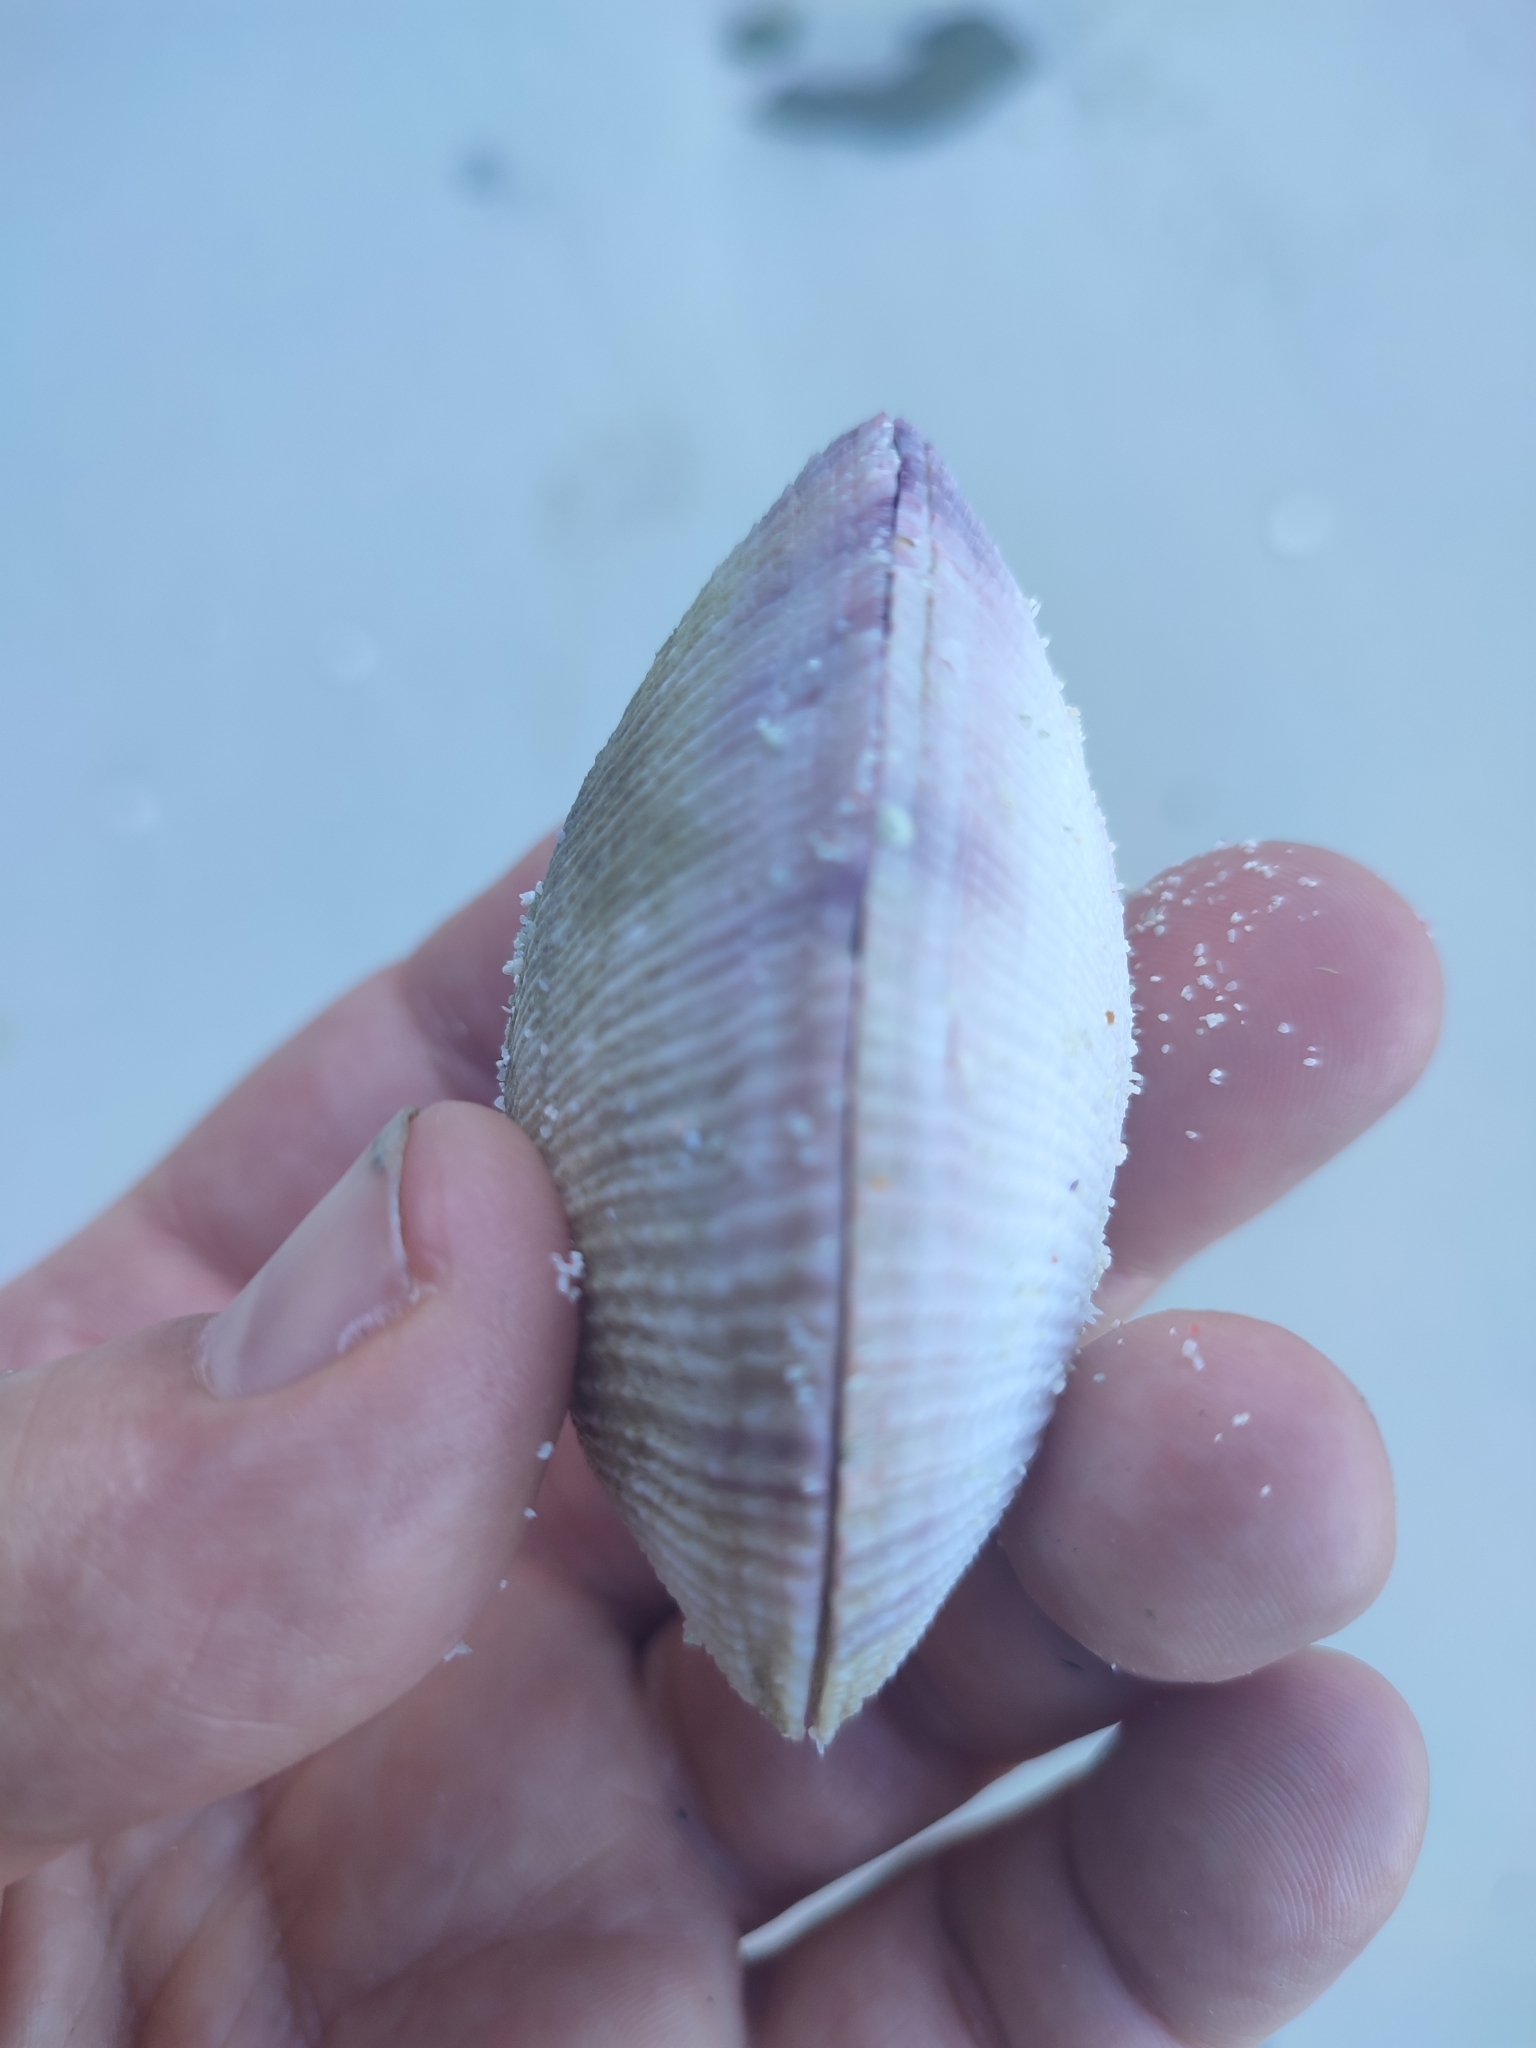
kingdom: Animalia
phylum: Mollusca
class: Bivalvia
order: Cardiida
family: Psammobiidae
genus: Asaphis
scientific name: Asaphis violascens
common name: Pacific asaphis
